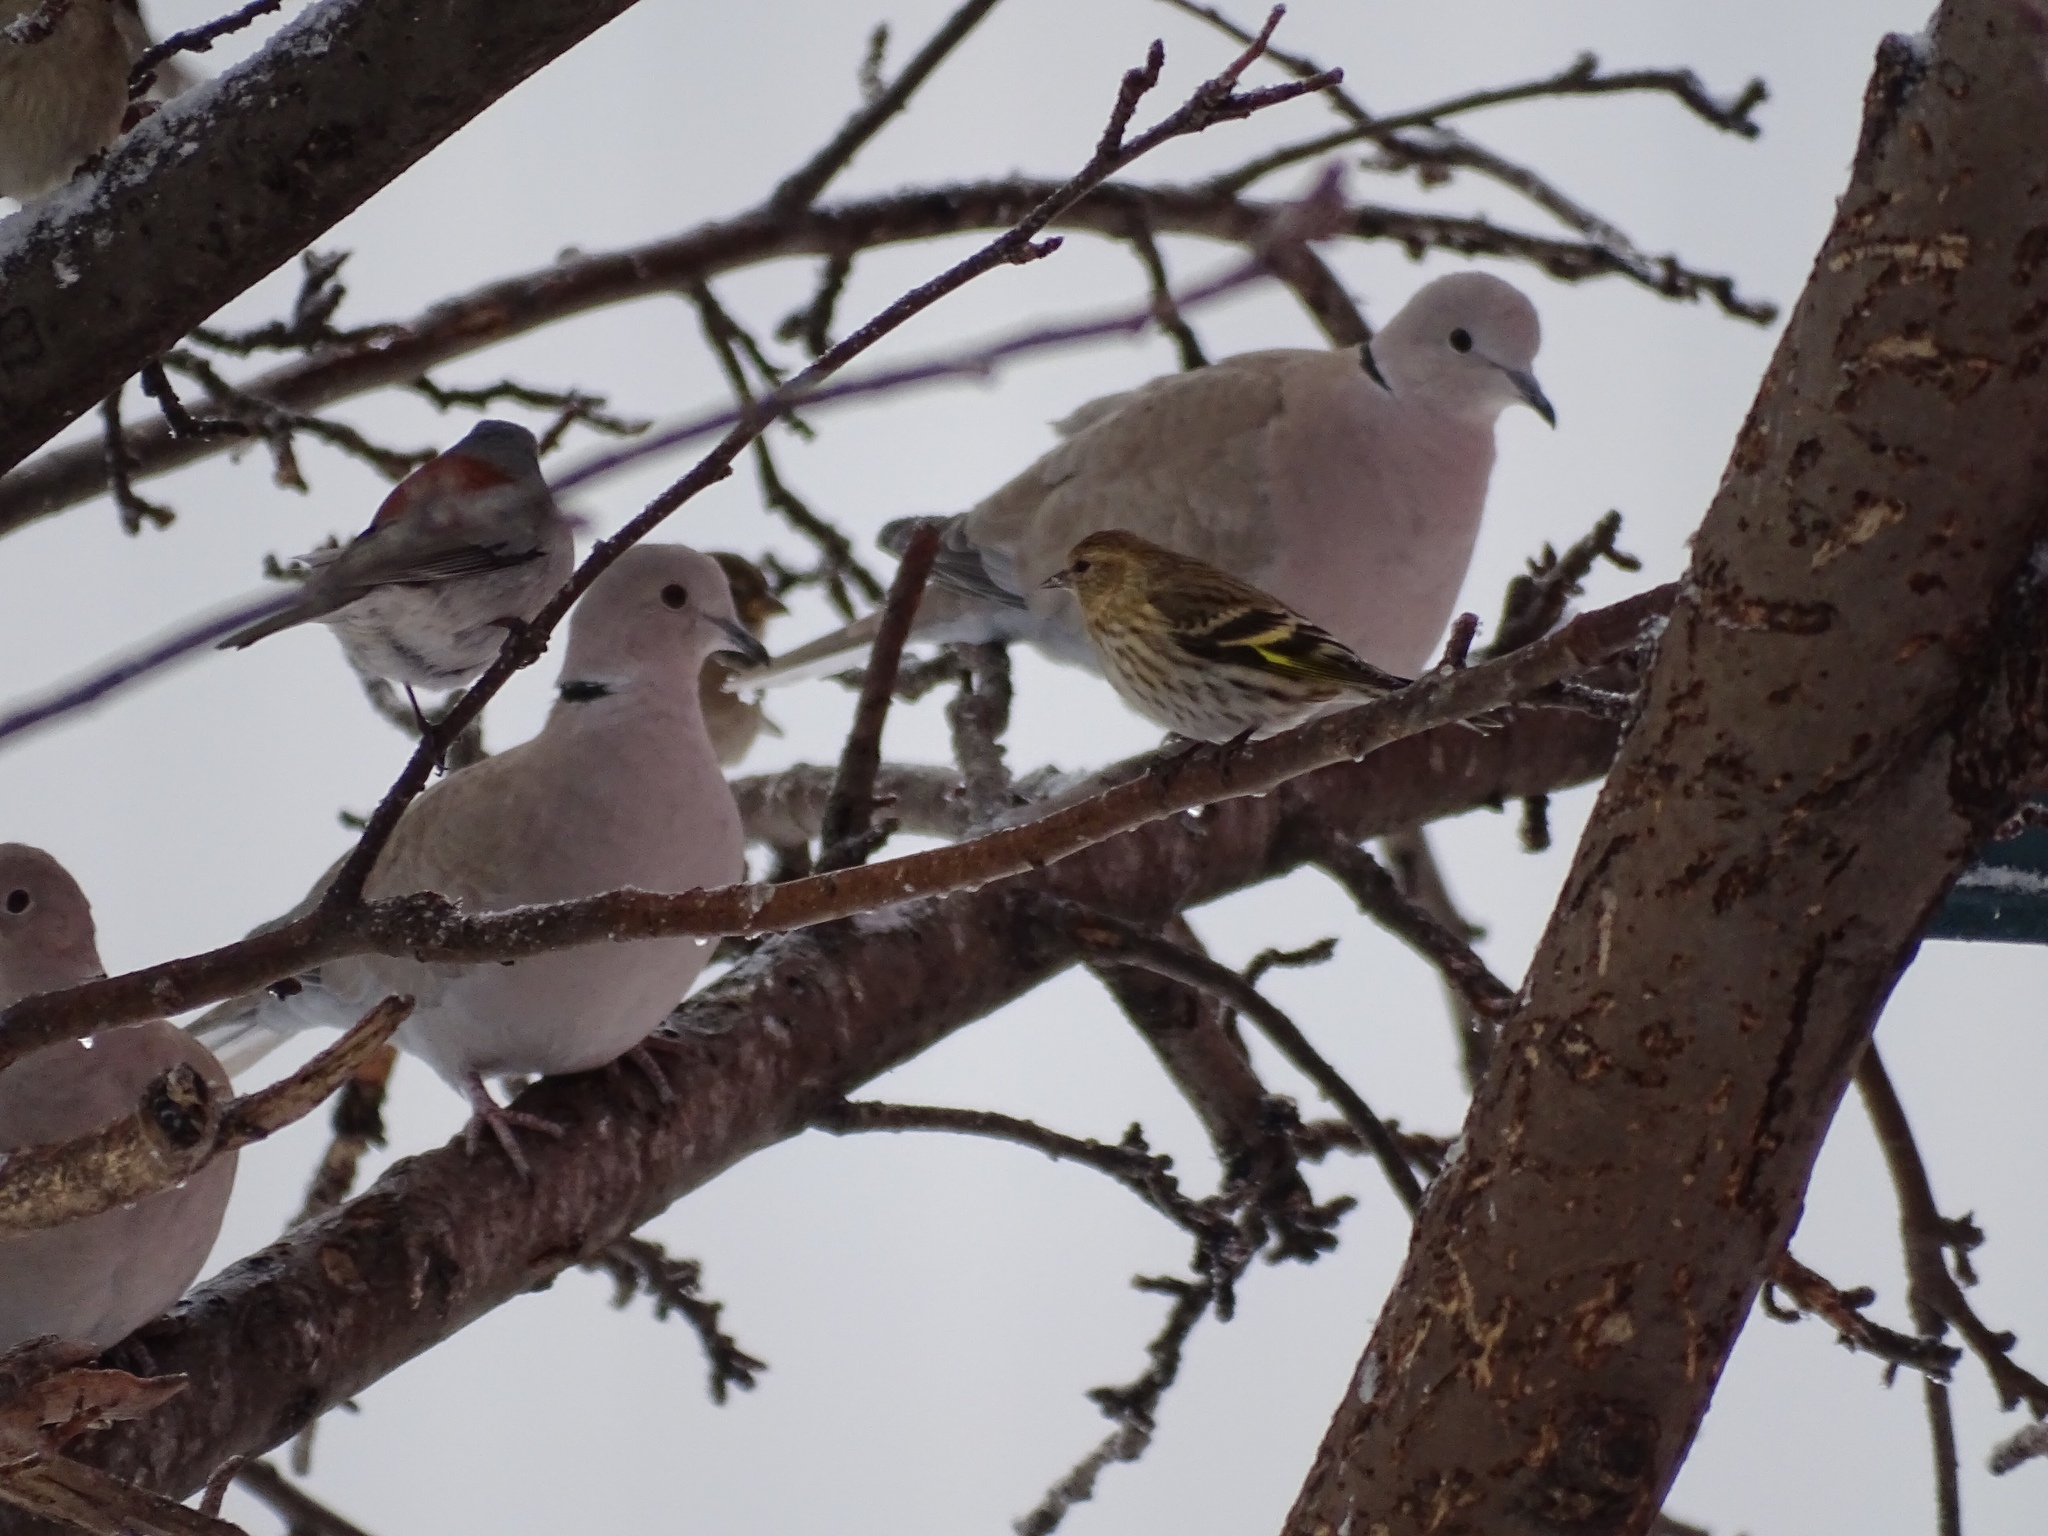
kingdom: Animalia
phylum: Chordata
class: Aves
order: Columbiformes
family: Columbidae
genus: Streptopelia
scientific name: Streptopelia decaocto
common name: Eurasian collared dove
